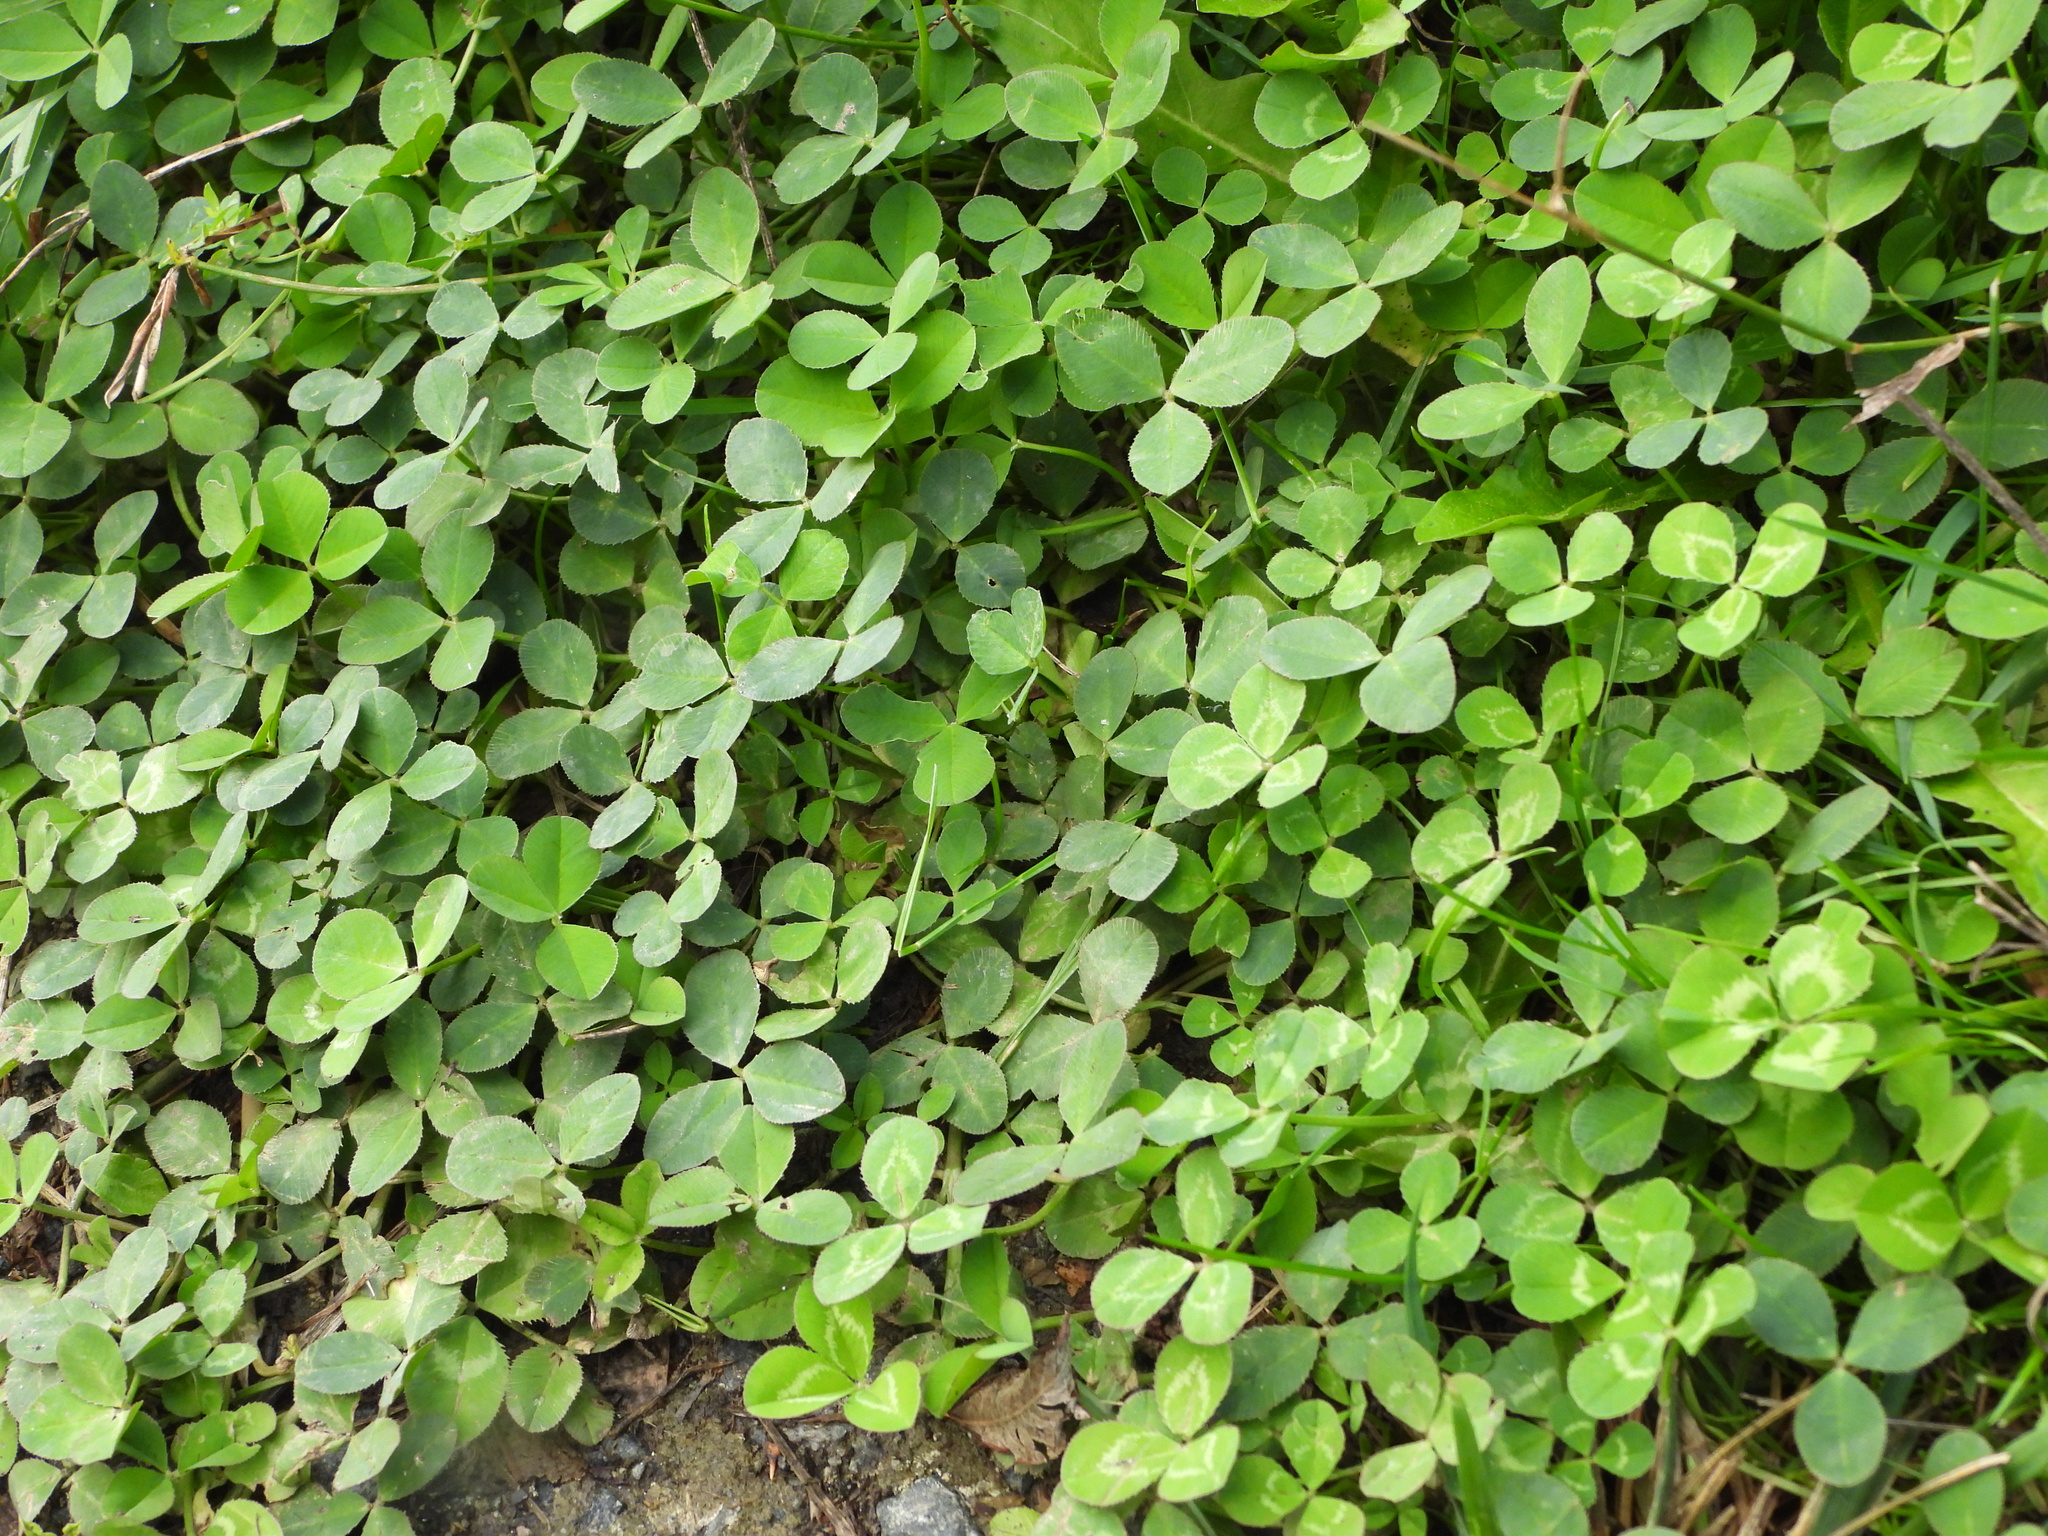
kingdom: Plantae
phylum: Tracheophyta
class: Magnoliopsida
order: Fabales
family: Fabaceae
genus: Trifolium
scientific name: Trifolium repens
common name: White clover
